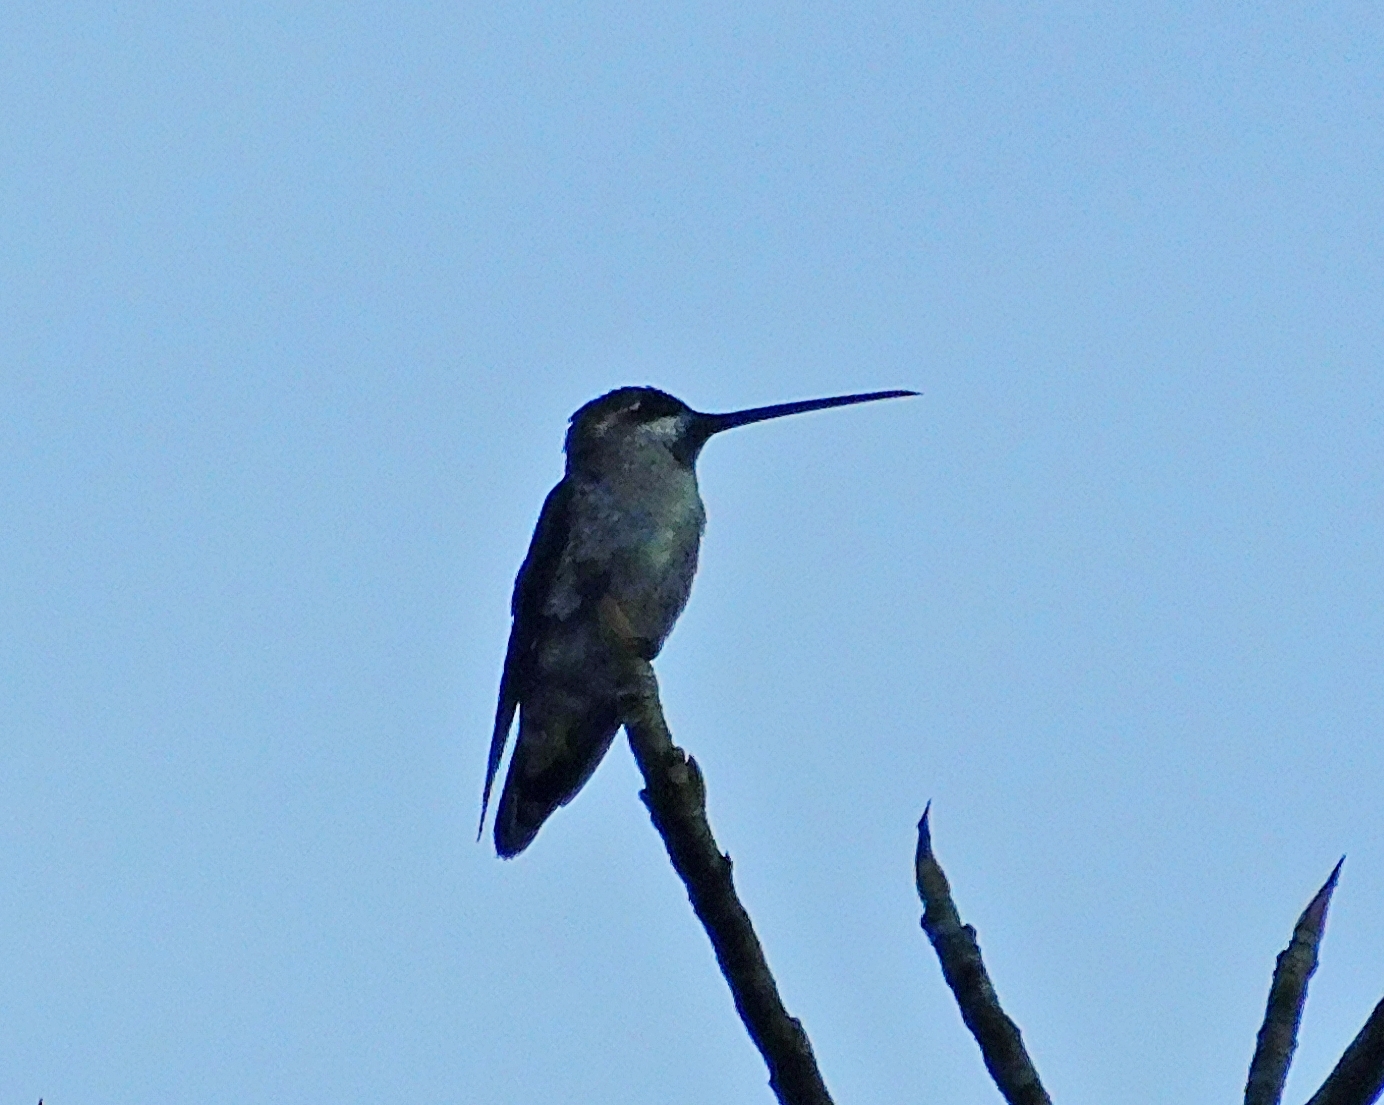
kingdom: Animalia
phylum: Chordata
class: Aves
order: Apodiformes
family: Trochilidae
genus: Heliomaster
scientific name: Heliomaster constantii
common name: Plain-capped starthroat
